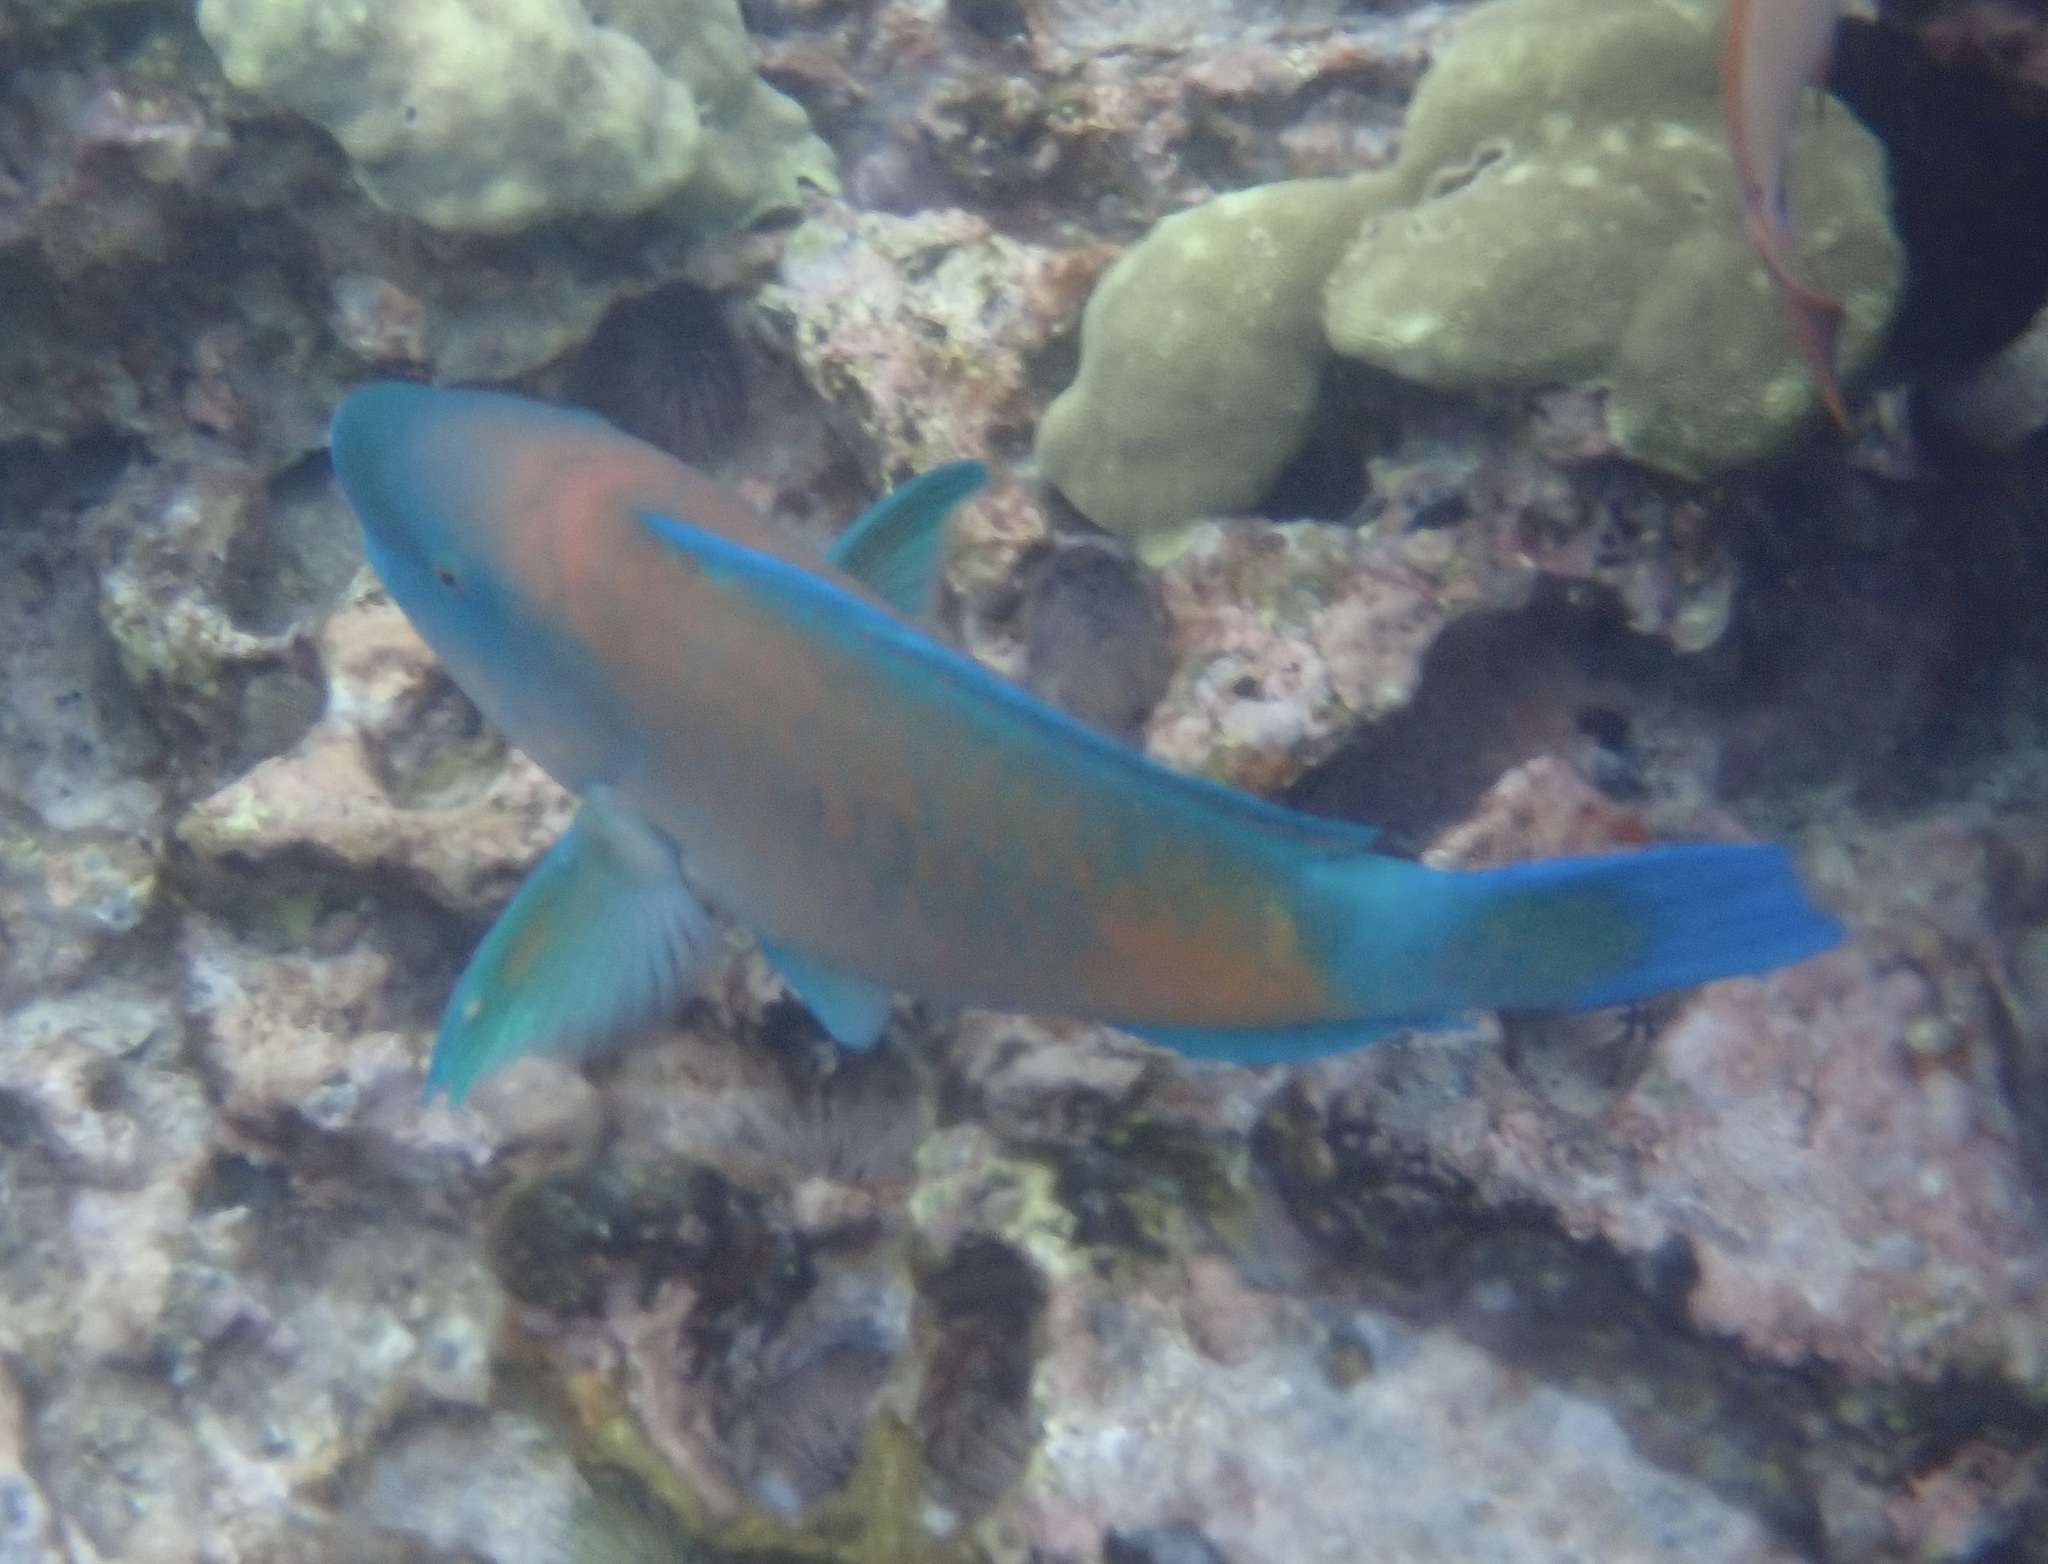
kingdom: Animalia
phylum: Chordata
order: Perciformes
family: Scaridae
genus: Chlorurus
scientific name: Chlorurus spilurus
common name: Bullethead parrotfish
